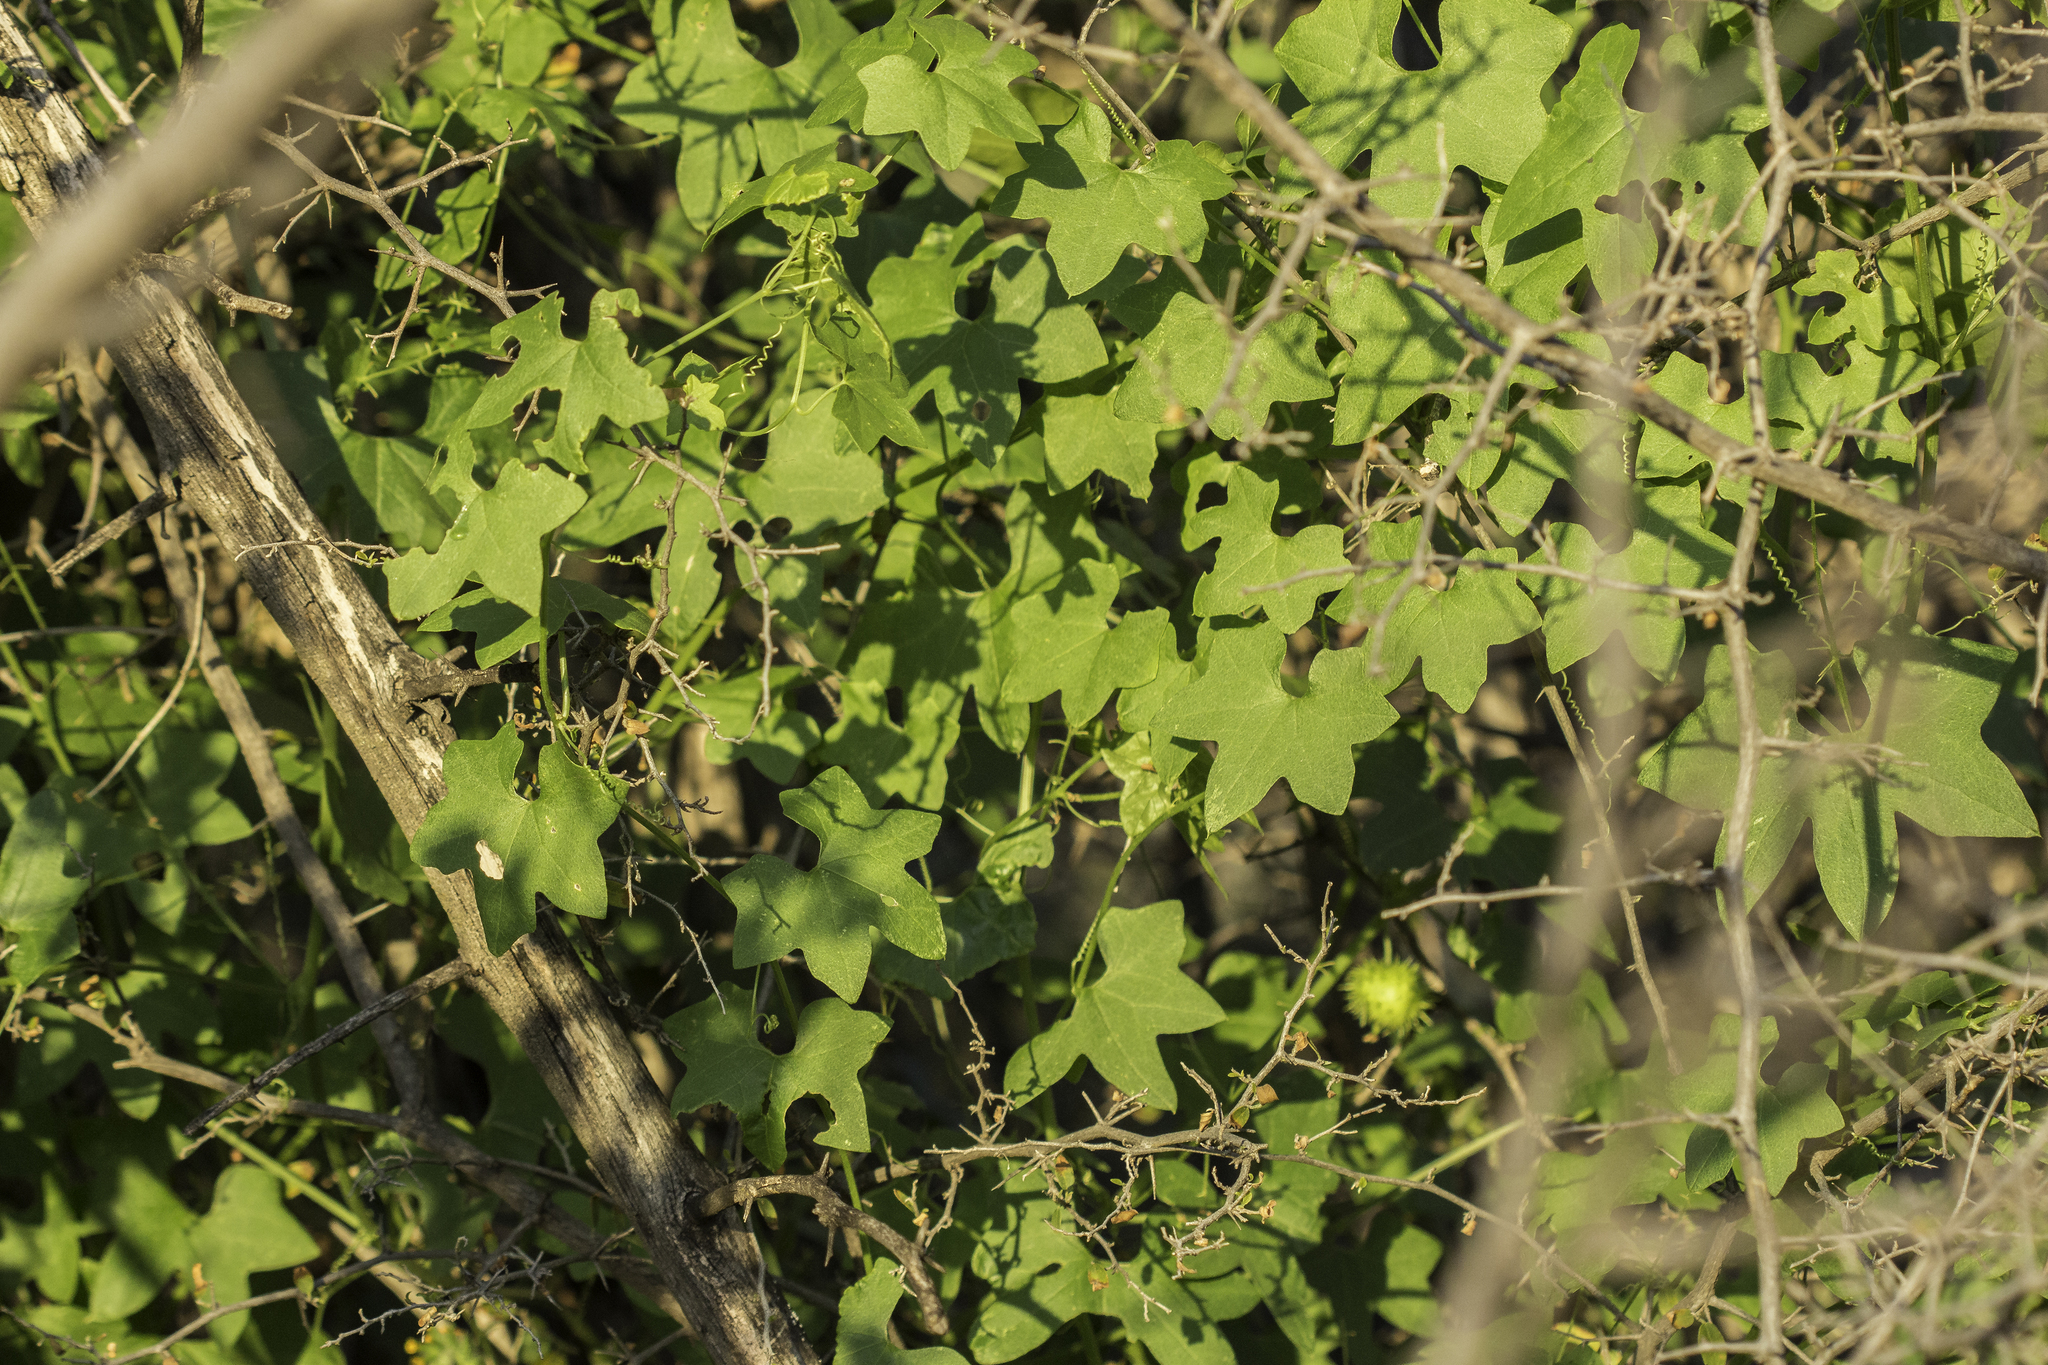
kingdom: Plantae
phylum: Tracheophyta
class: Magnoliopsida
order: Cucurbitales
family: Cucurbitaceae
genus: Marah
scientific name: Marah gilensis
